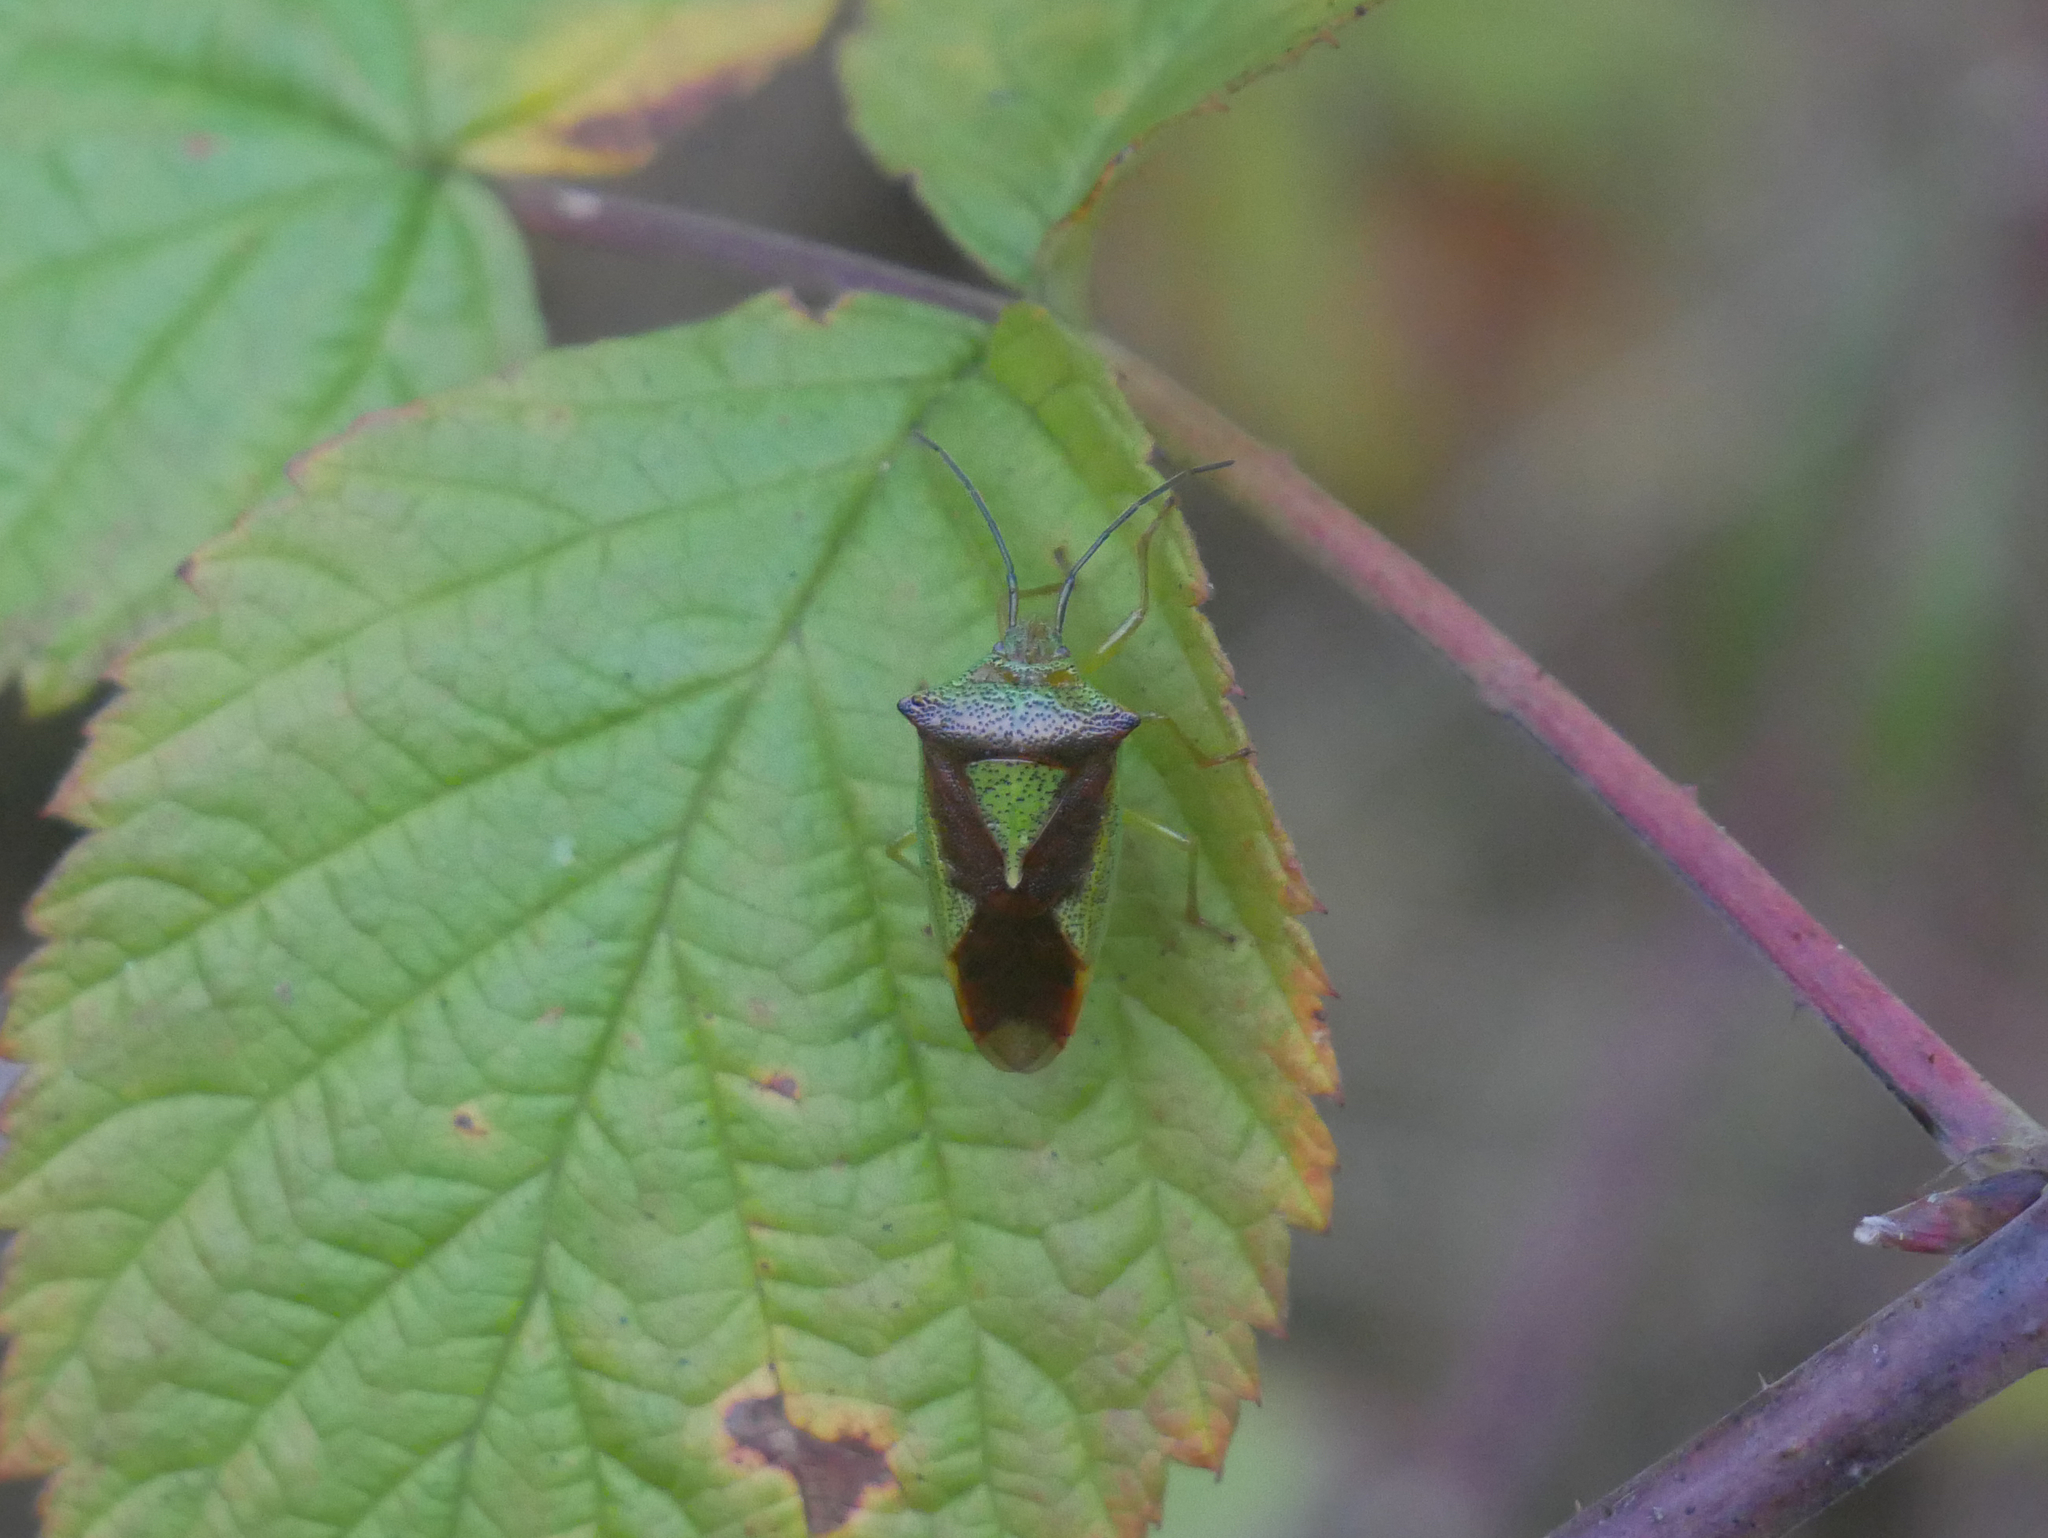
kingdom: Animalia
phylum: Arthropoda
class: Insecta
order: Hemiptera
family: Acanthosomatidae
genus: Acanthosoma
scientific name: Acanthosoma haemorrhoidale
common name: Hawthorn shieldbug
